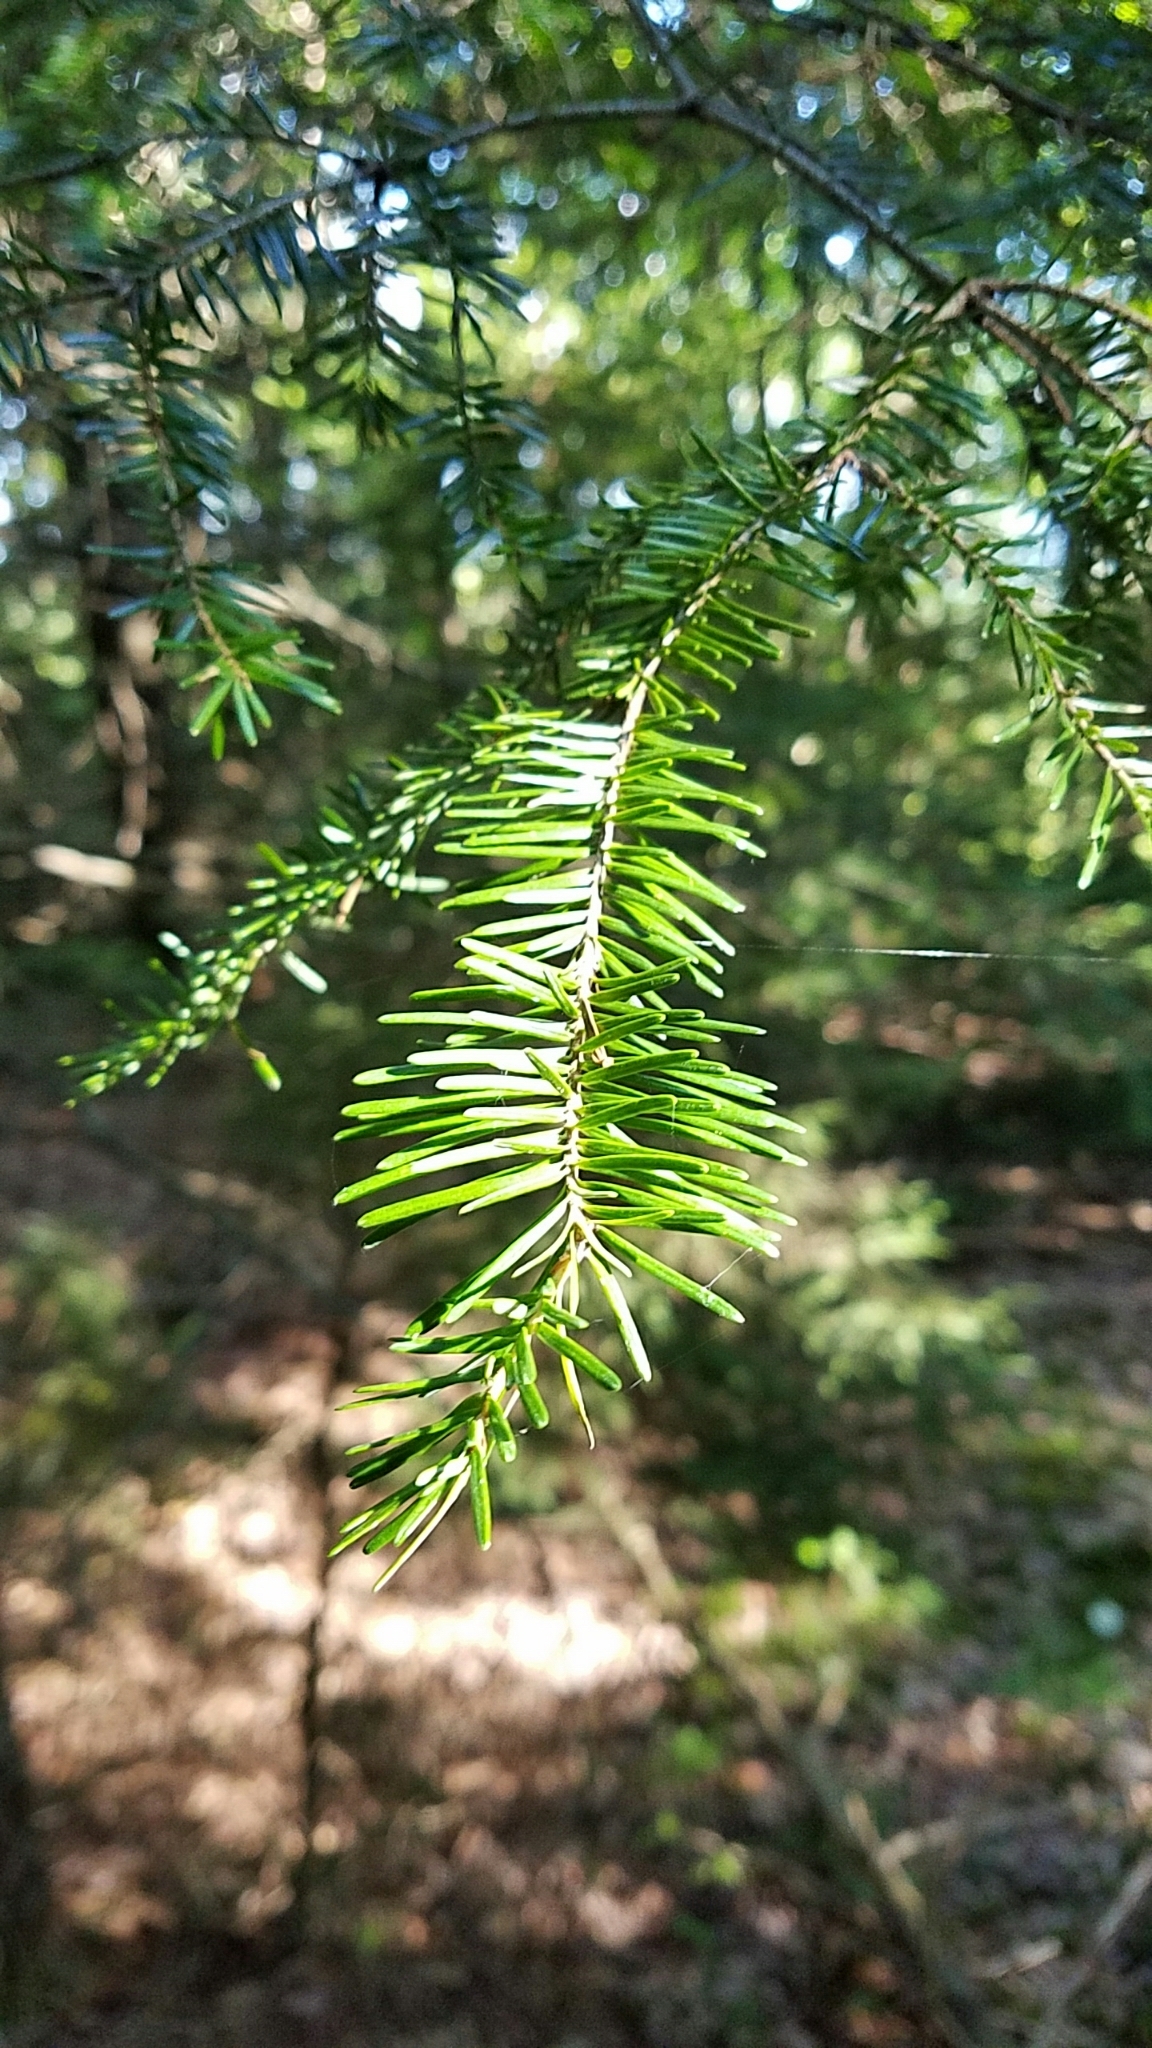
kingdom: Plantae
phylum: Tracheophyta
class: Pinopsida
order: Pinales
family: Pinaceae
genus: Abies
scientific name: Abies balsamea
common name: Balsam fir
